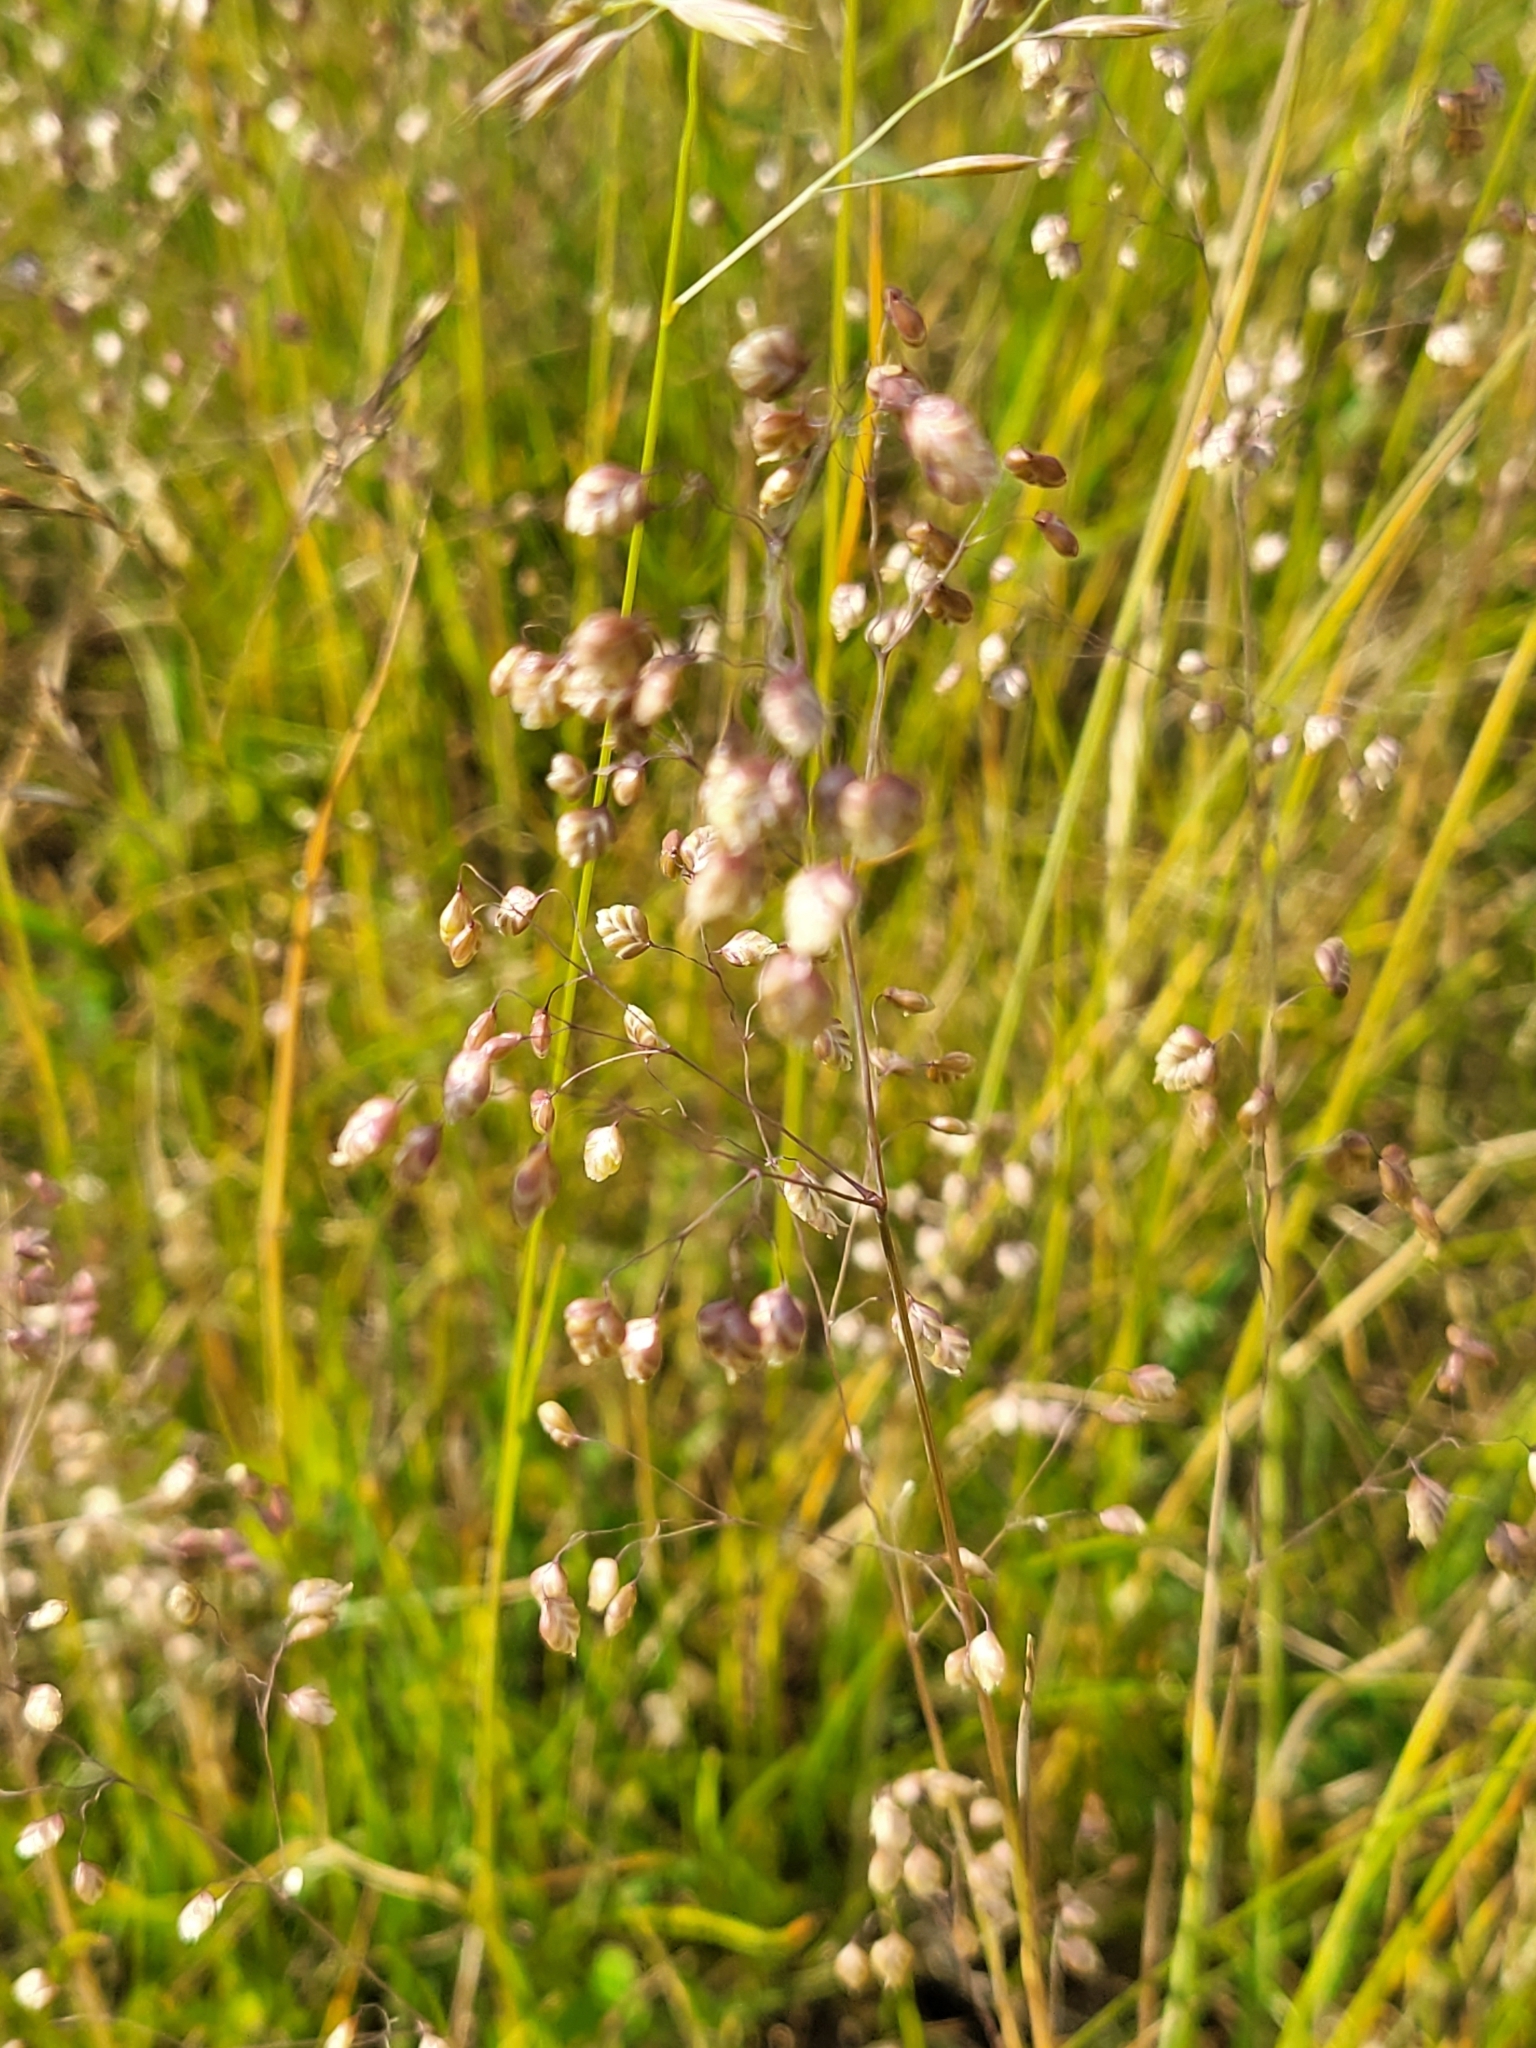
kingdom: Plantae
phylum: Tracheophyta
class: Liliopsida
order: Poales
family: Poaceae
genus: Briza
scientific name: Briza media
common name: Quaking grass
